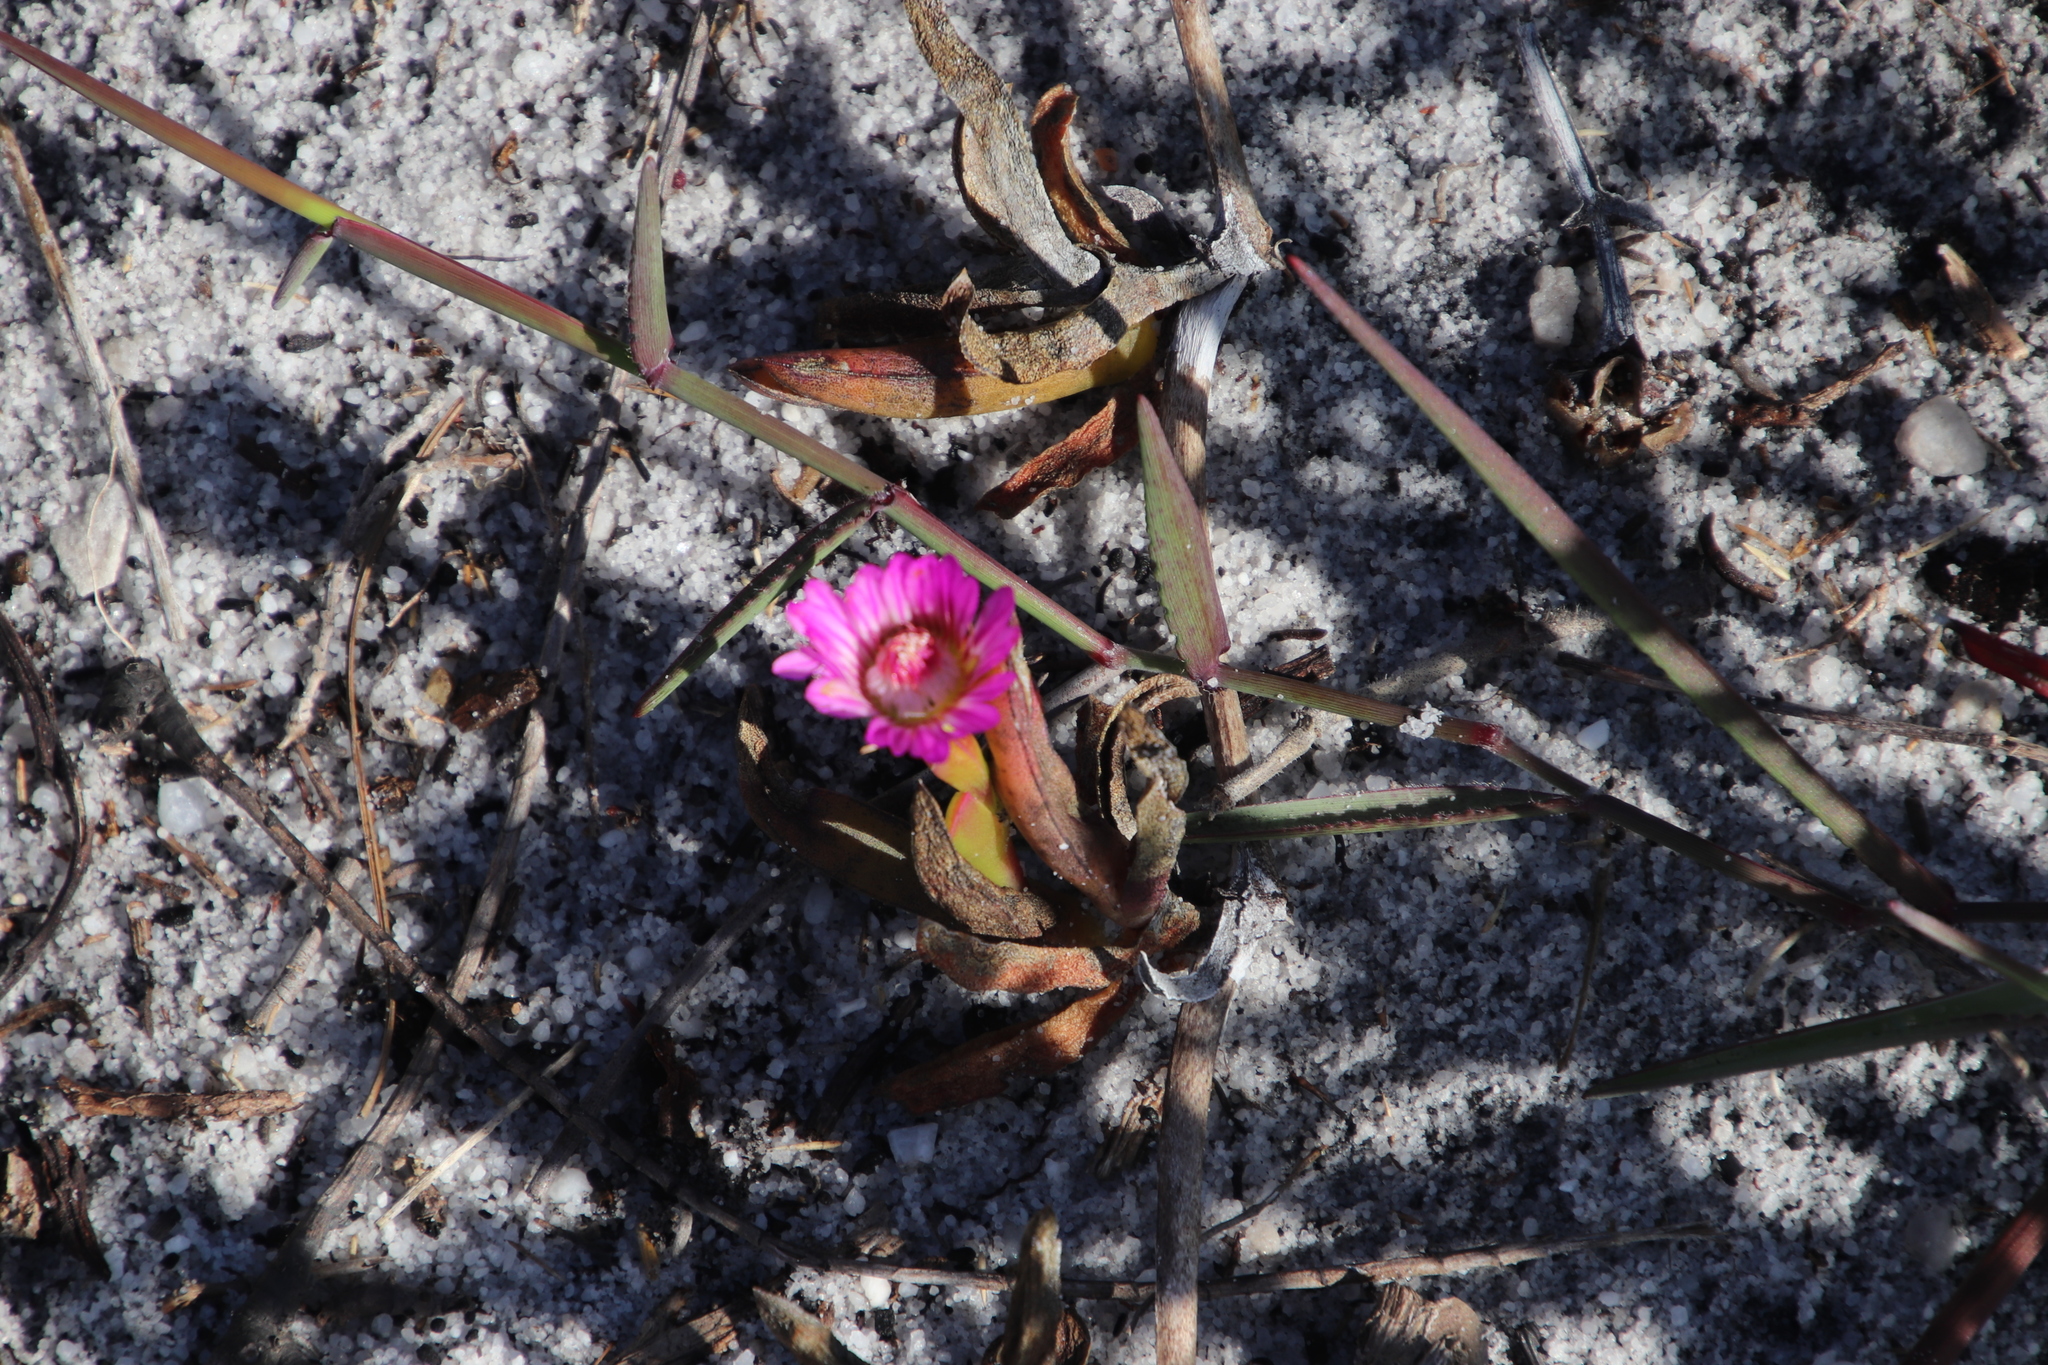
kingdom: Plantae
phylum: Tracheophyta
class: Magnoliopsida
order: Caryophyllales
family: Aizoaceae
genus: Ruschia
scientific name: Ruschia sarmentosa
